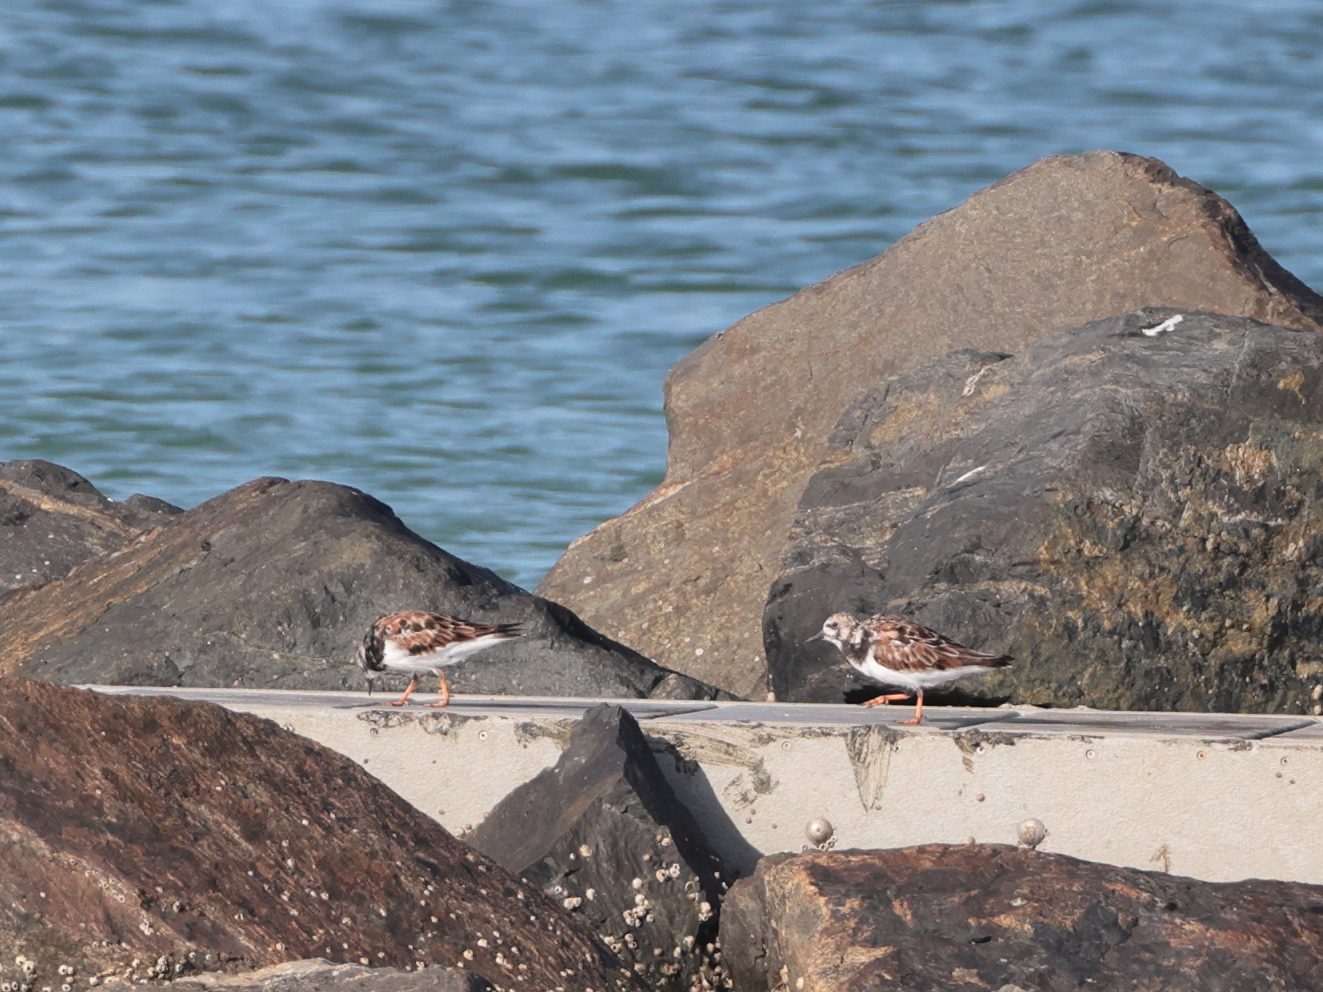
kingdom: Animalia
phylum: Chordata
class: Aves
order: Charadriiformes
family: Scolopacidae
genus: Arenaria
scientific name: Arenaria interpres
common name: Ruddy turnstone
